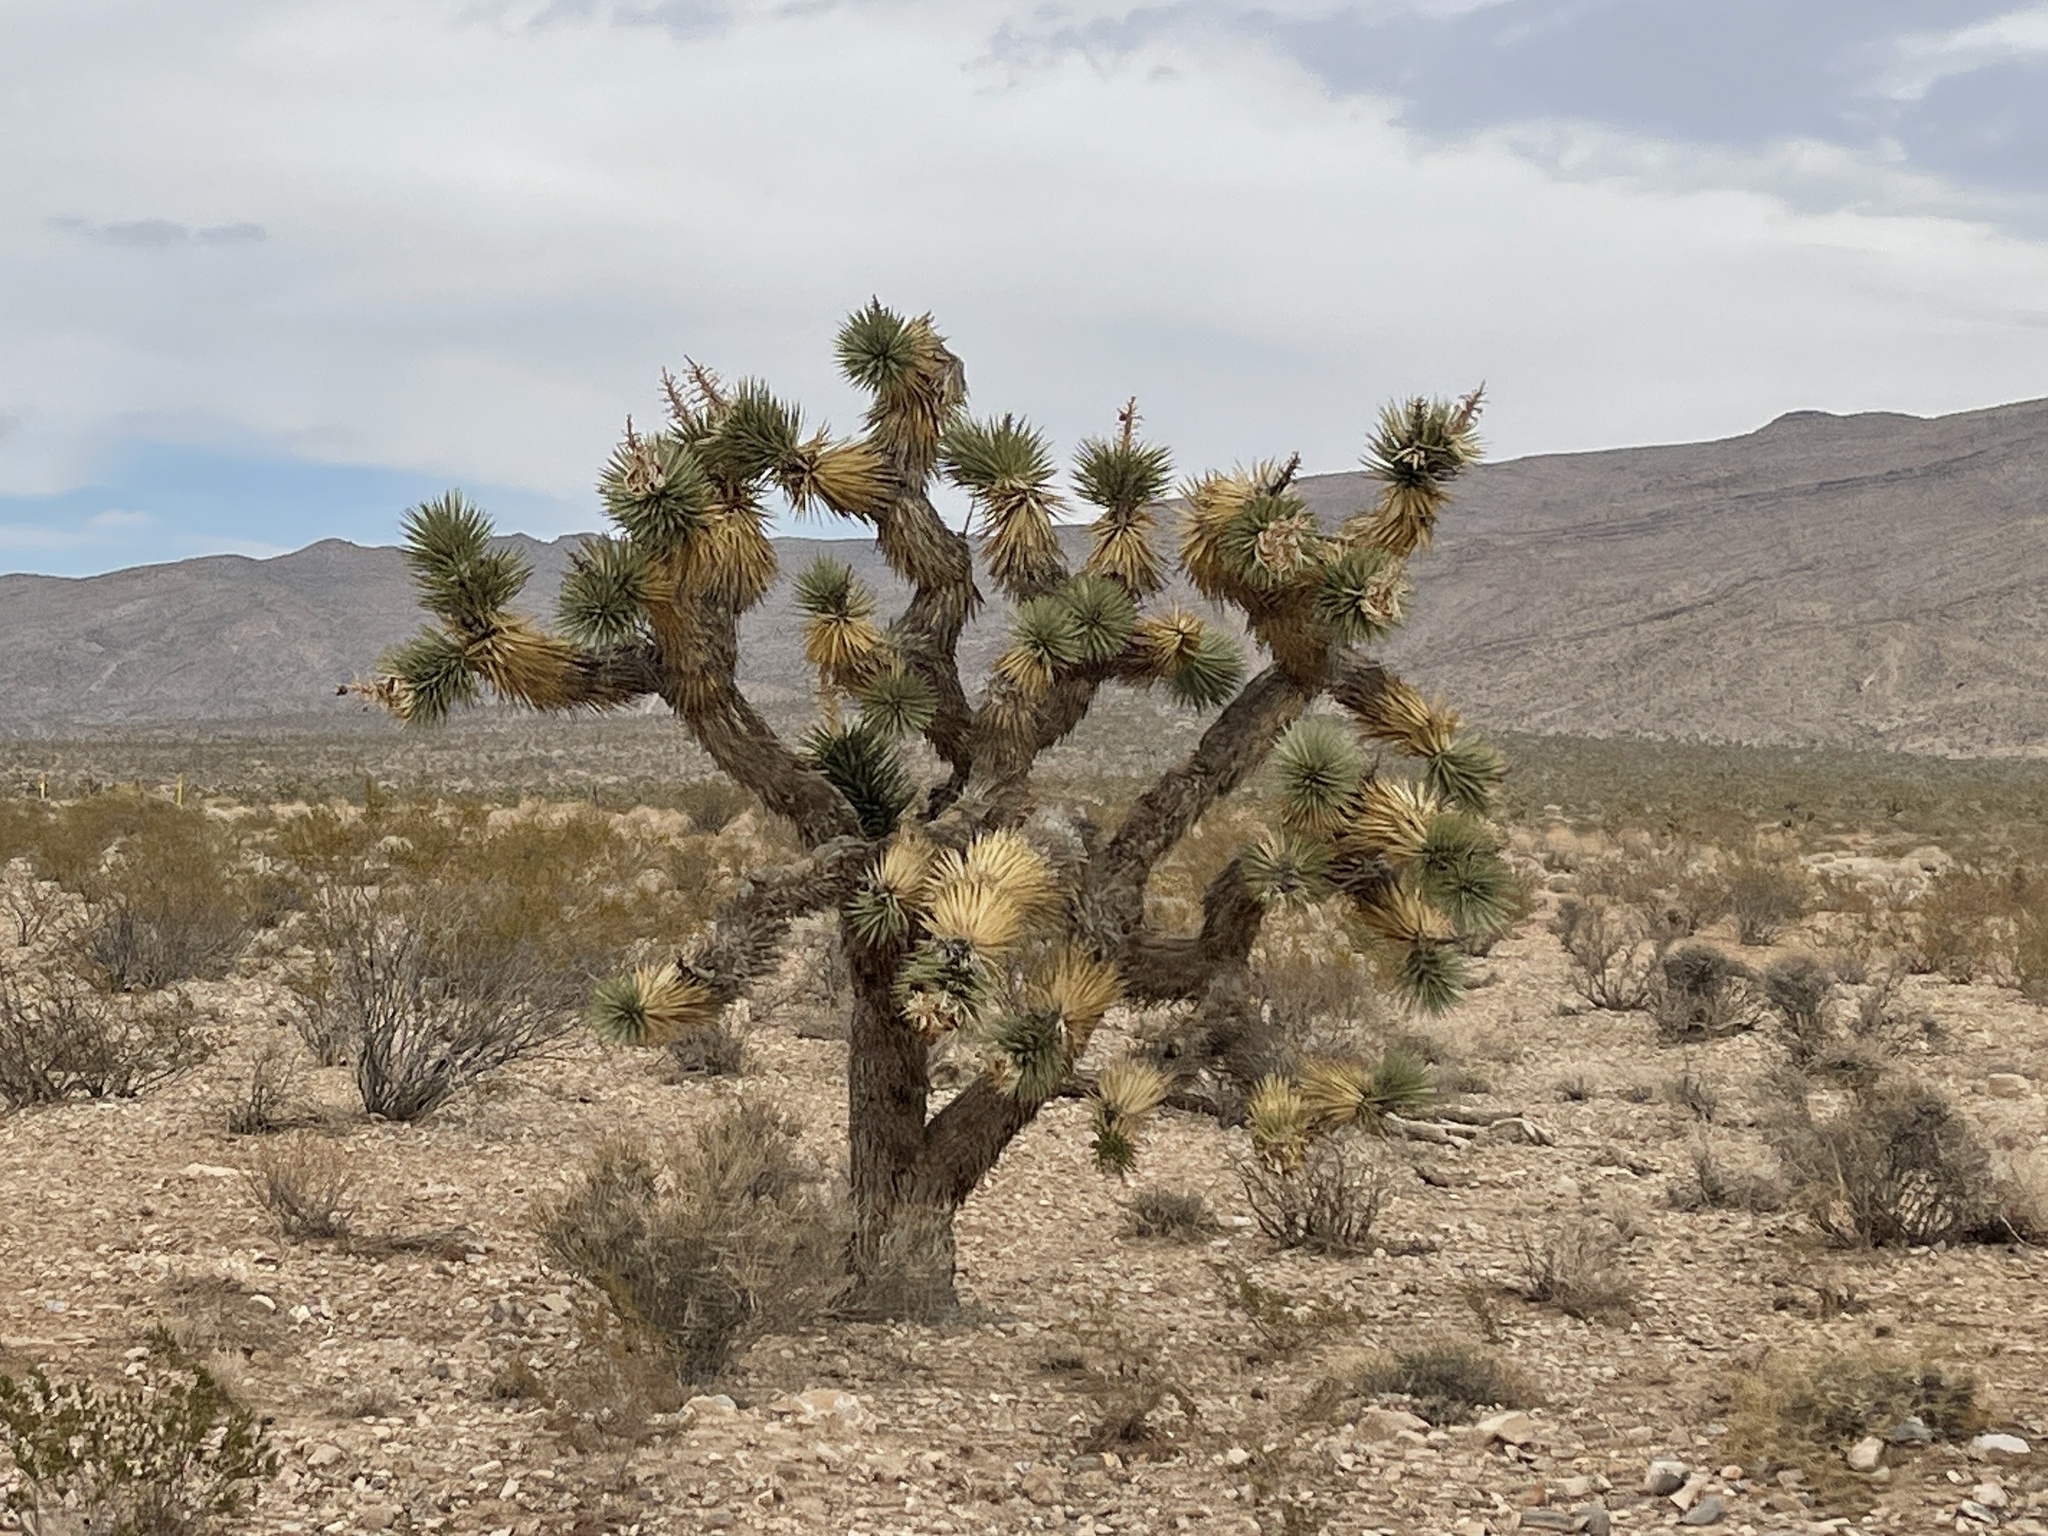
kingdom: Plantae
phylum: Tracheophyta
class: Liliopsida
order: Asparagales
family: Asparagaceae
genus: Yucca
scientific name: Yucca brevifolia
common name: Joshua tree
